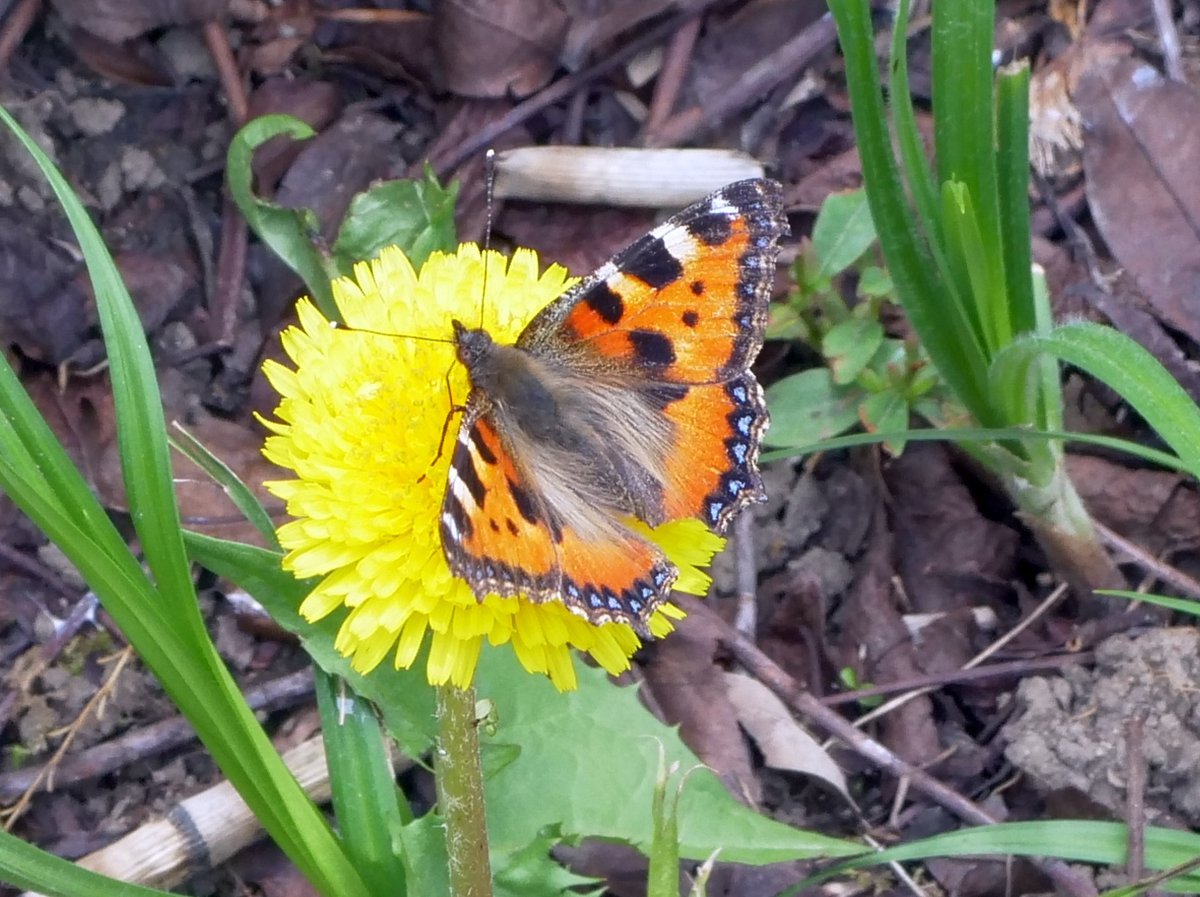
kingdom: Animalia
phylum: Arthropoda
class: Insecta
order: Lepidoptera
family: Nymphalidae
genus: Aglais
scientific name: Aglais urticae
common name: Small tortoiseshell
